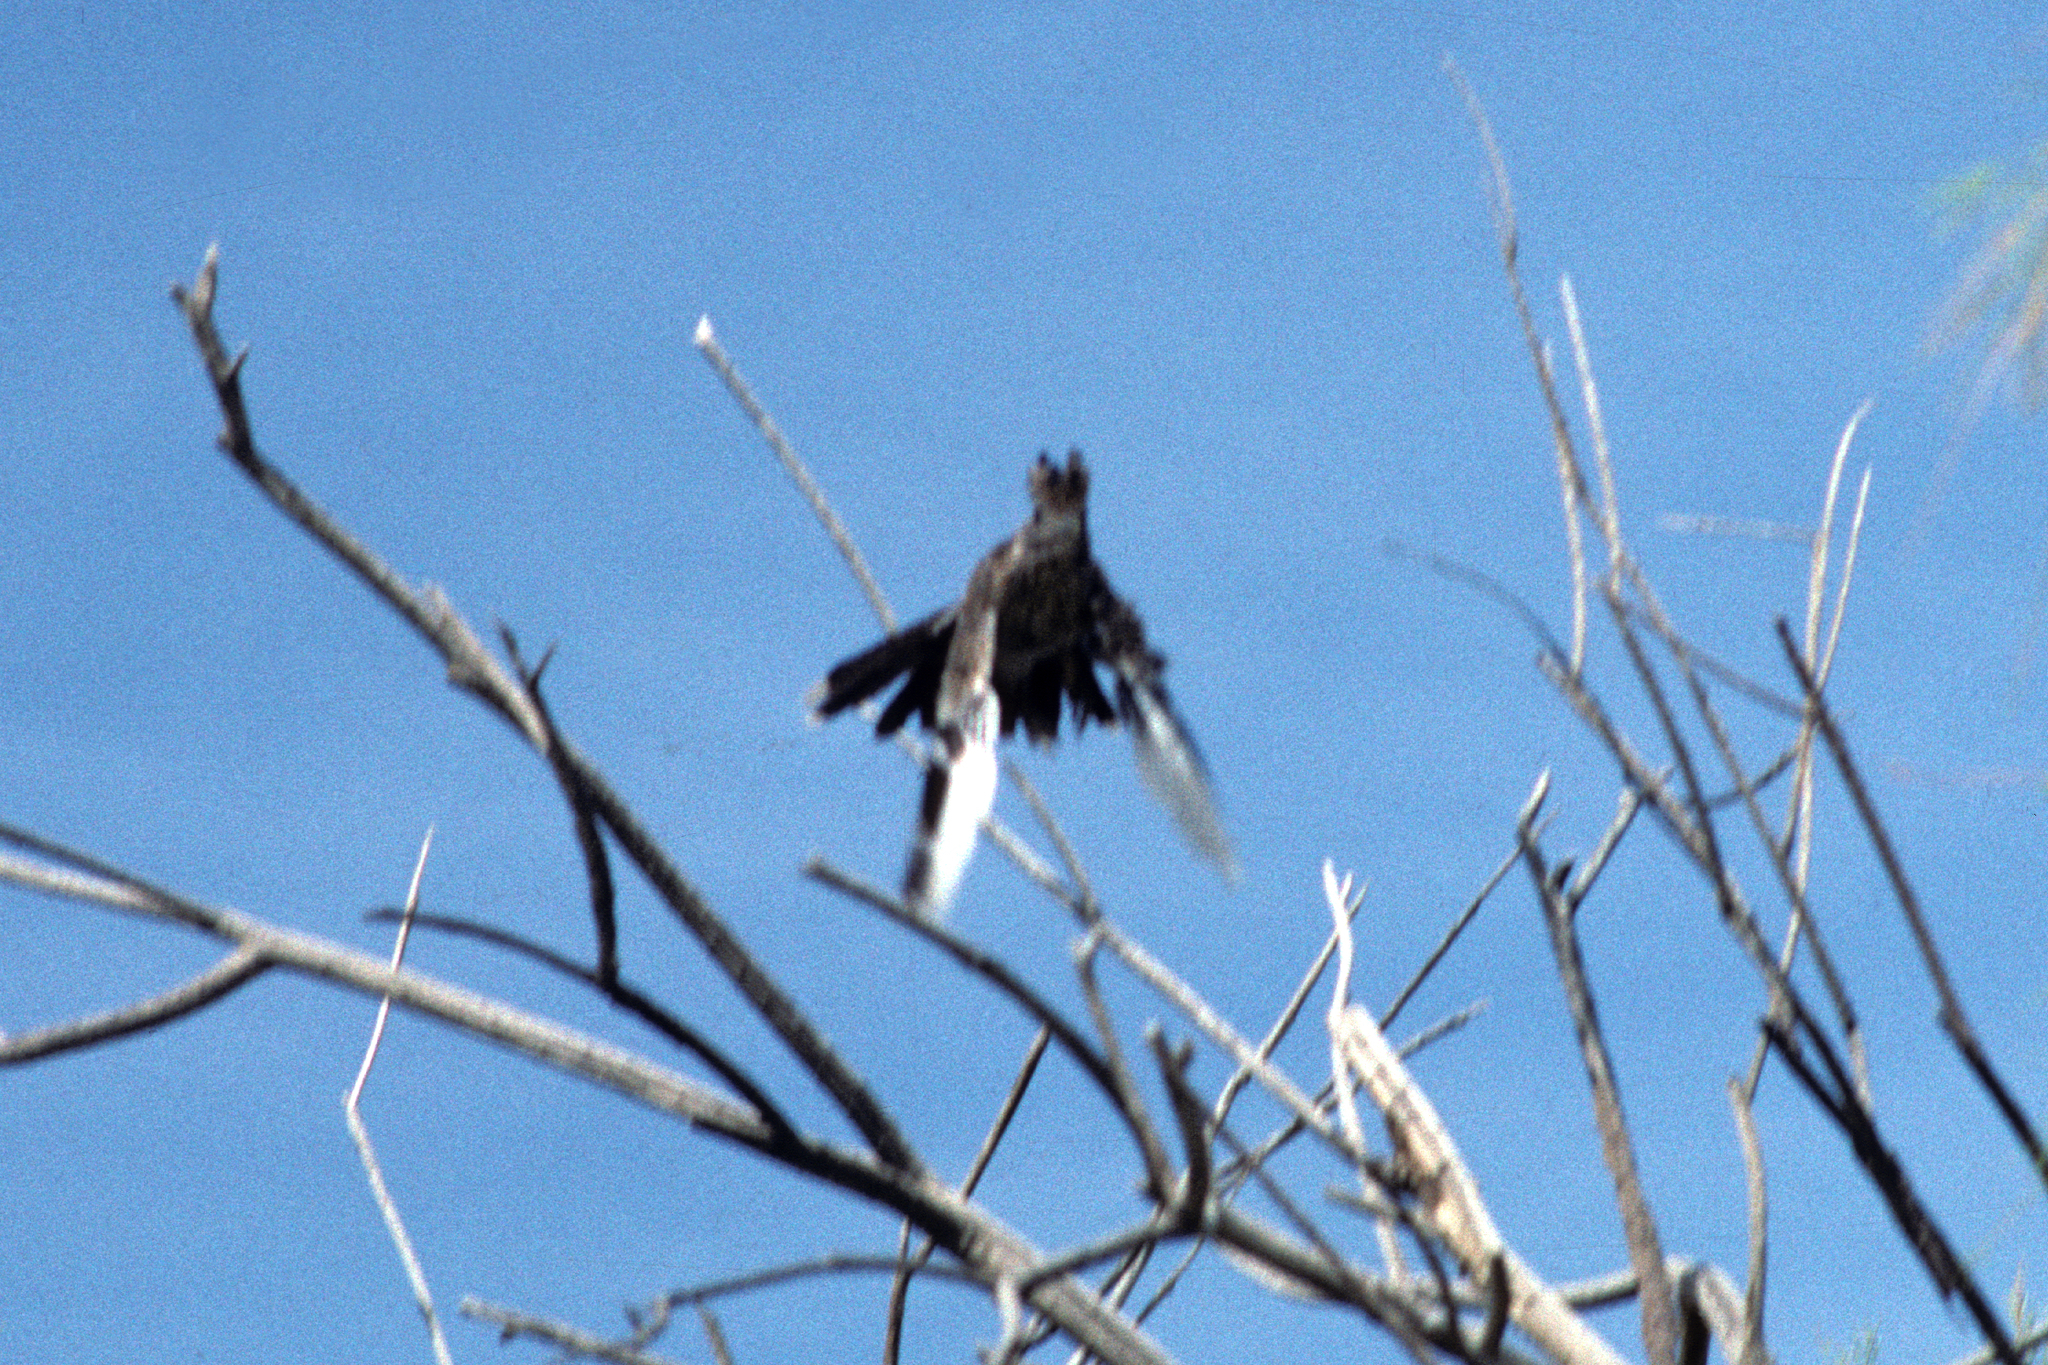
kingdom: Animalia
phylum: Chordata
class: Aves
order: Passeriformes
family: Ptilogonatidae
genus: Phainopepla
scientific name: Phainopepla nitens
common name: Phainopepla
